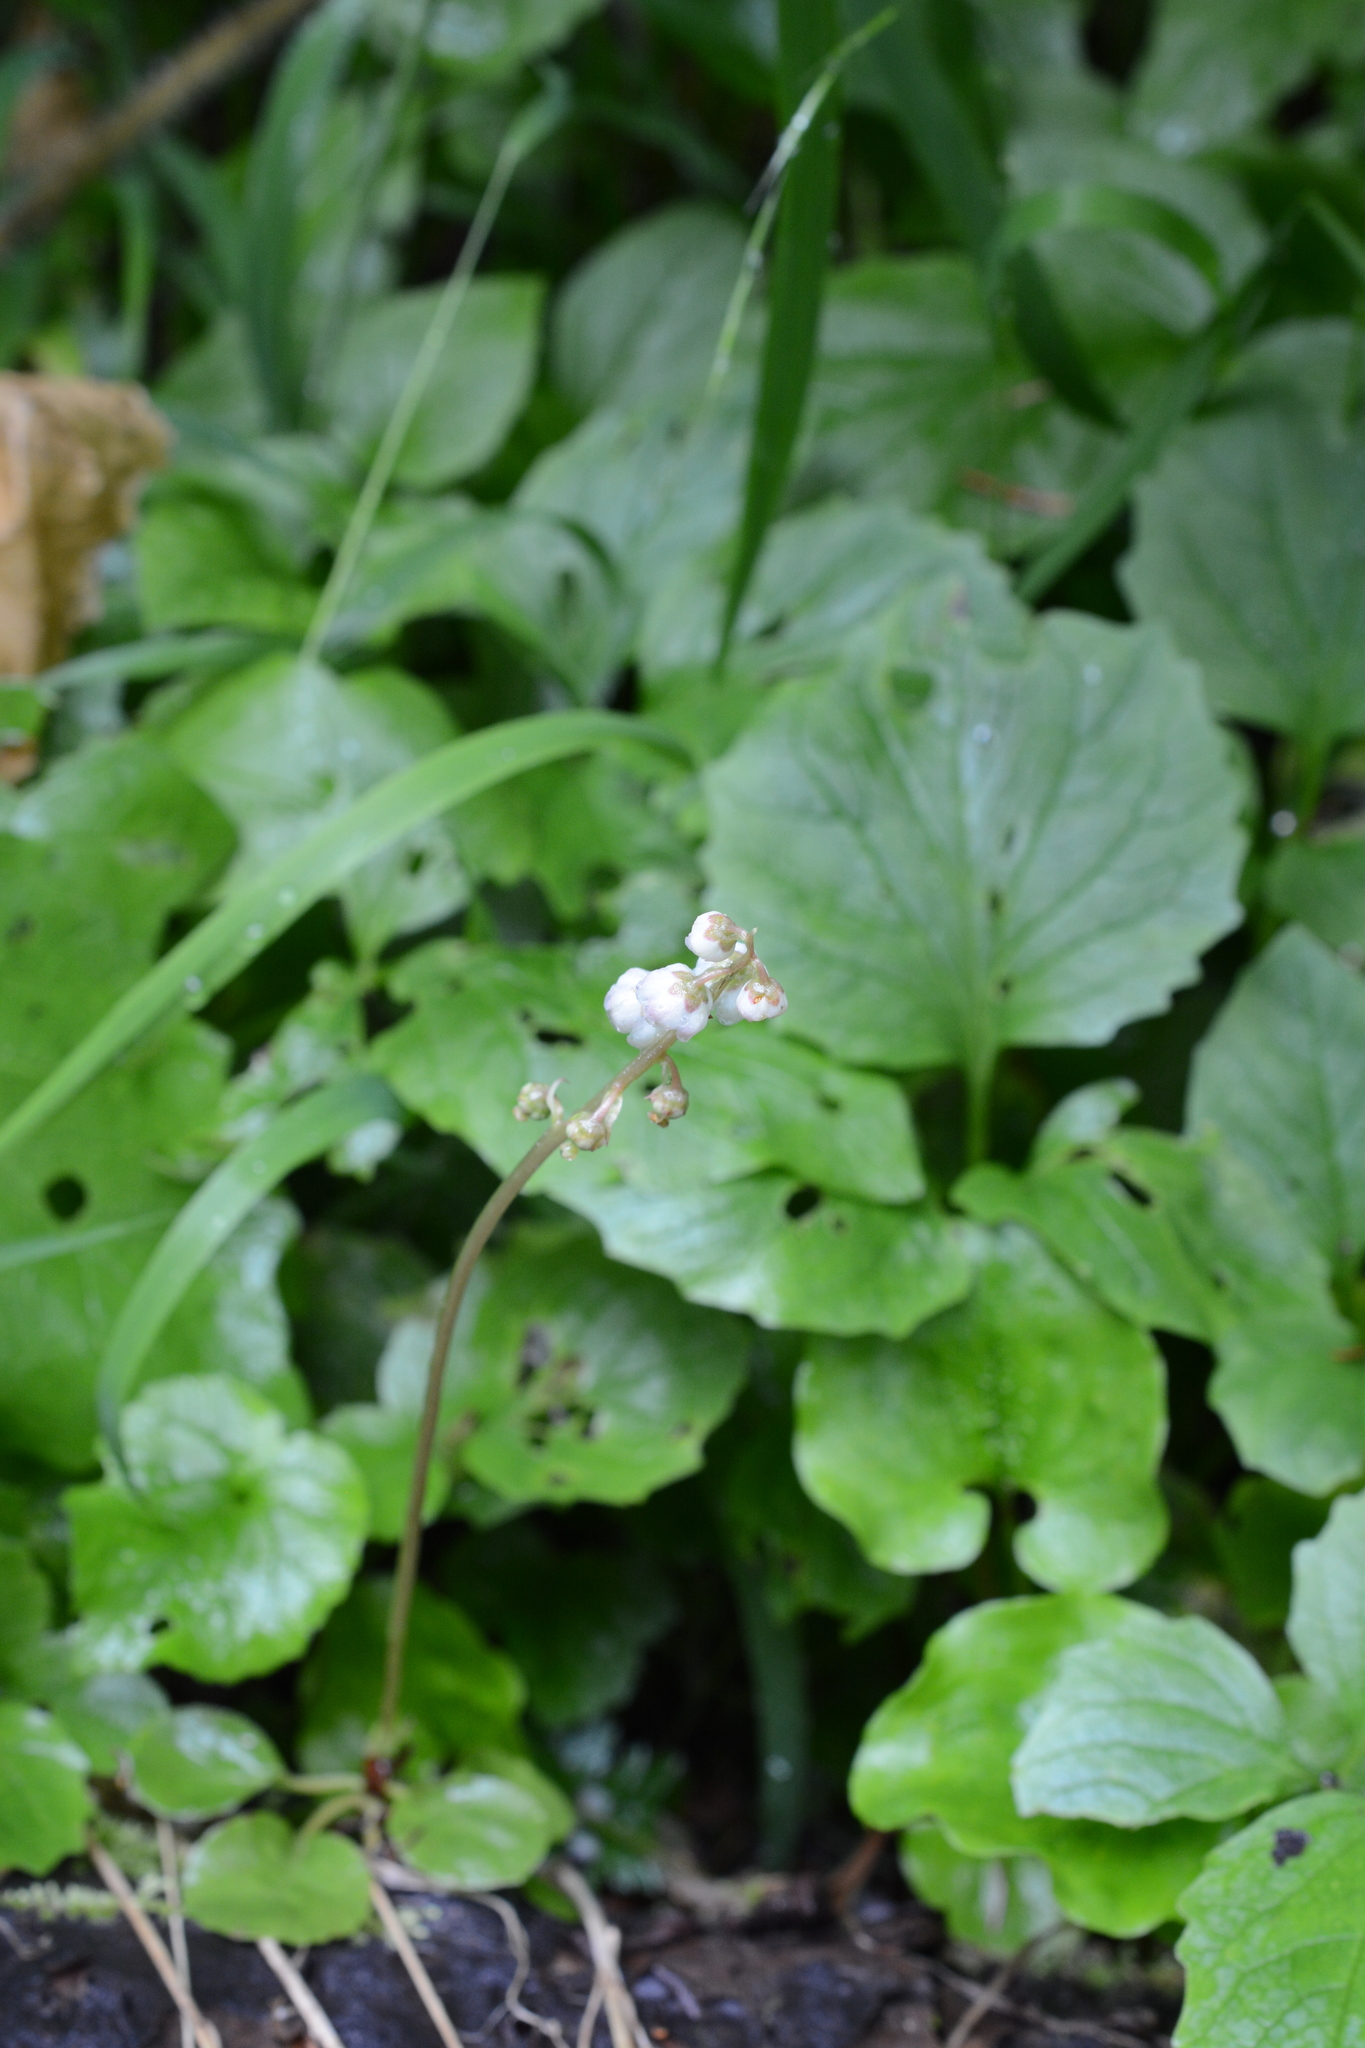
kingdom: Plantae
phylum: Tracheophyta
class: Magnoliopsida
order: Ericales
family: Ericaceae
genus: Pyrola
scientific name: Pyrola minor
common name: Common wintergreen
